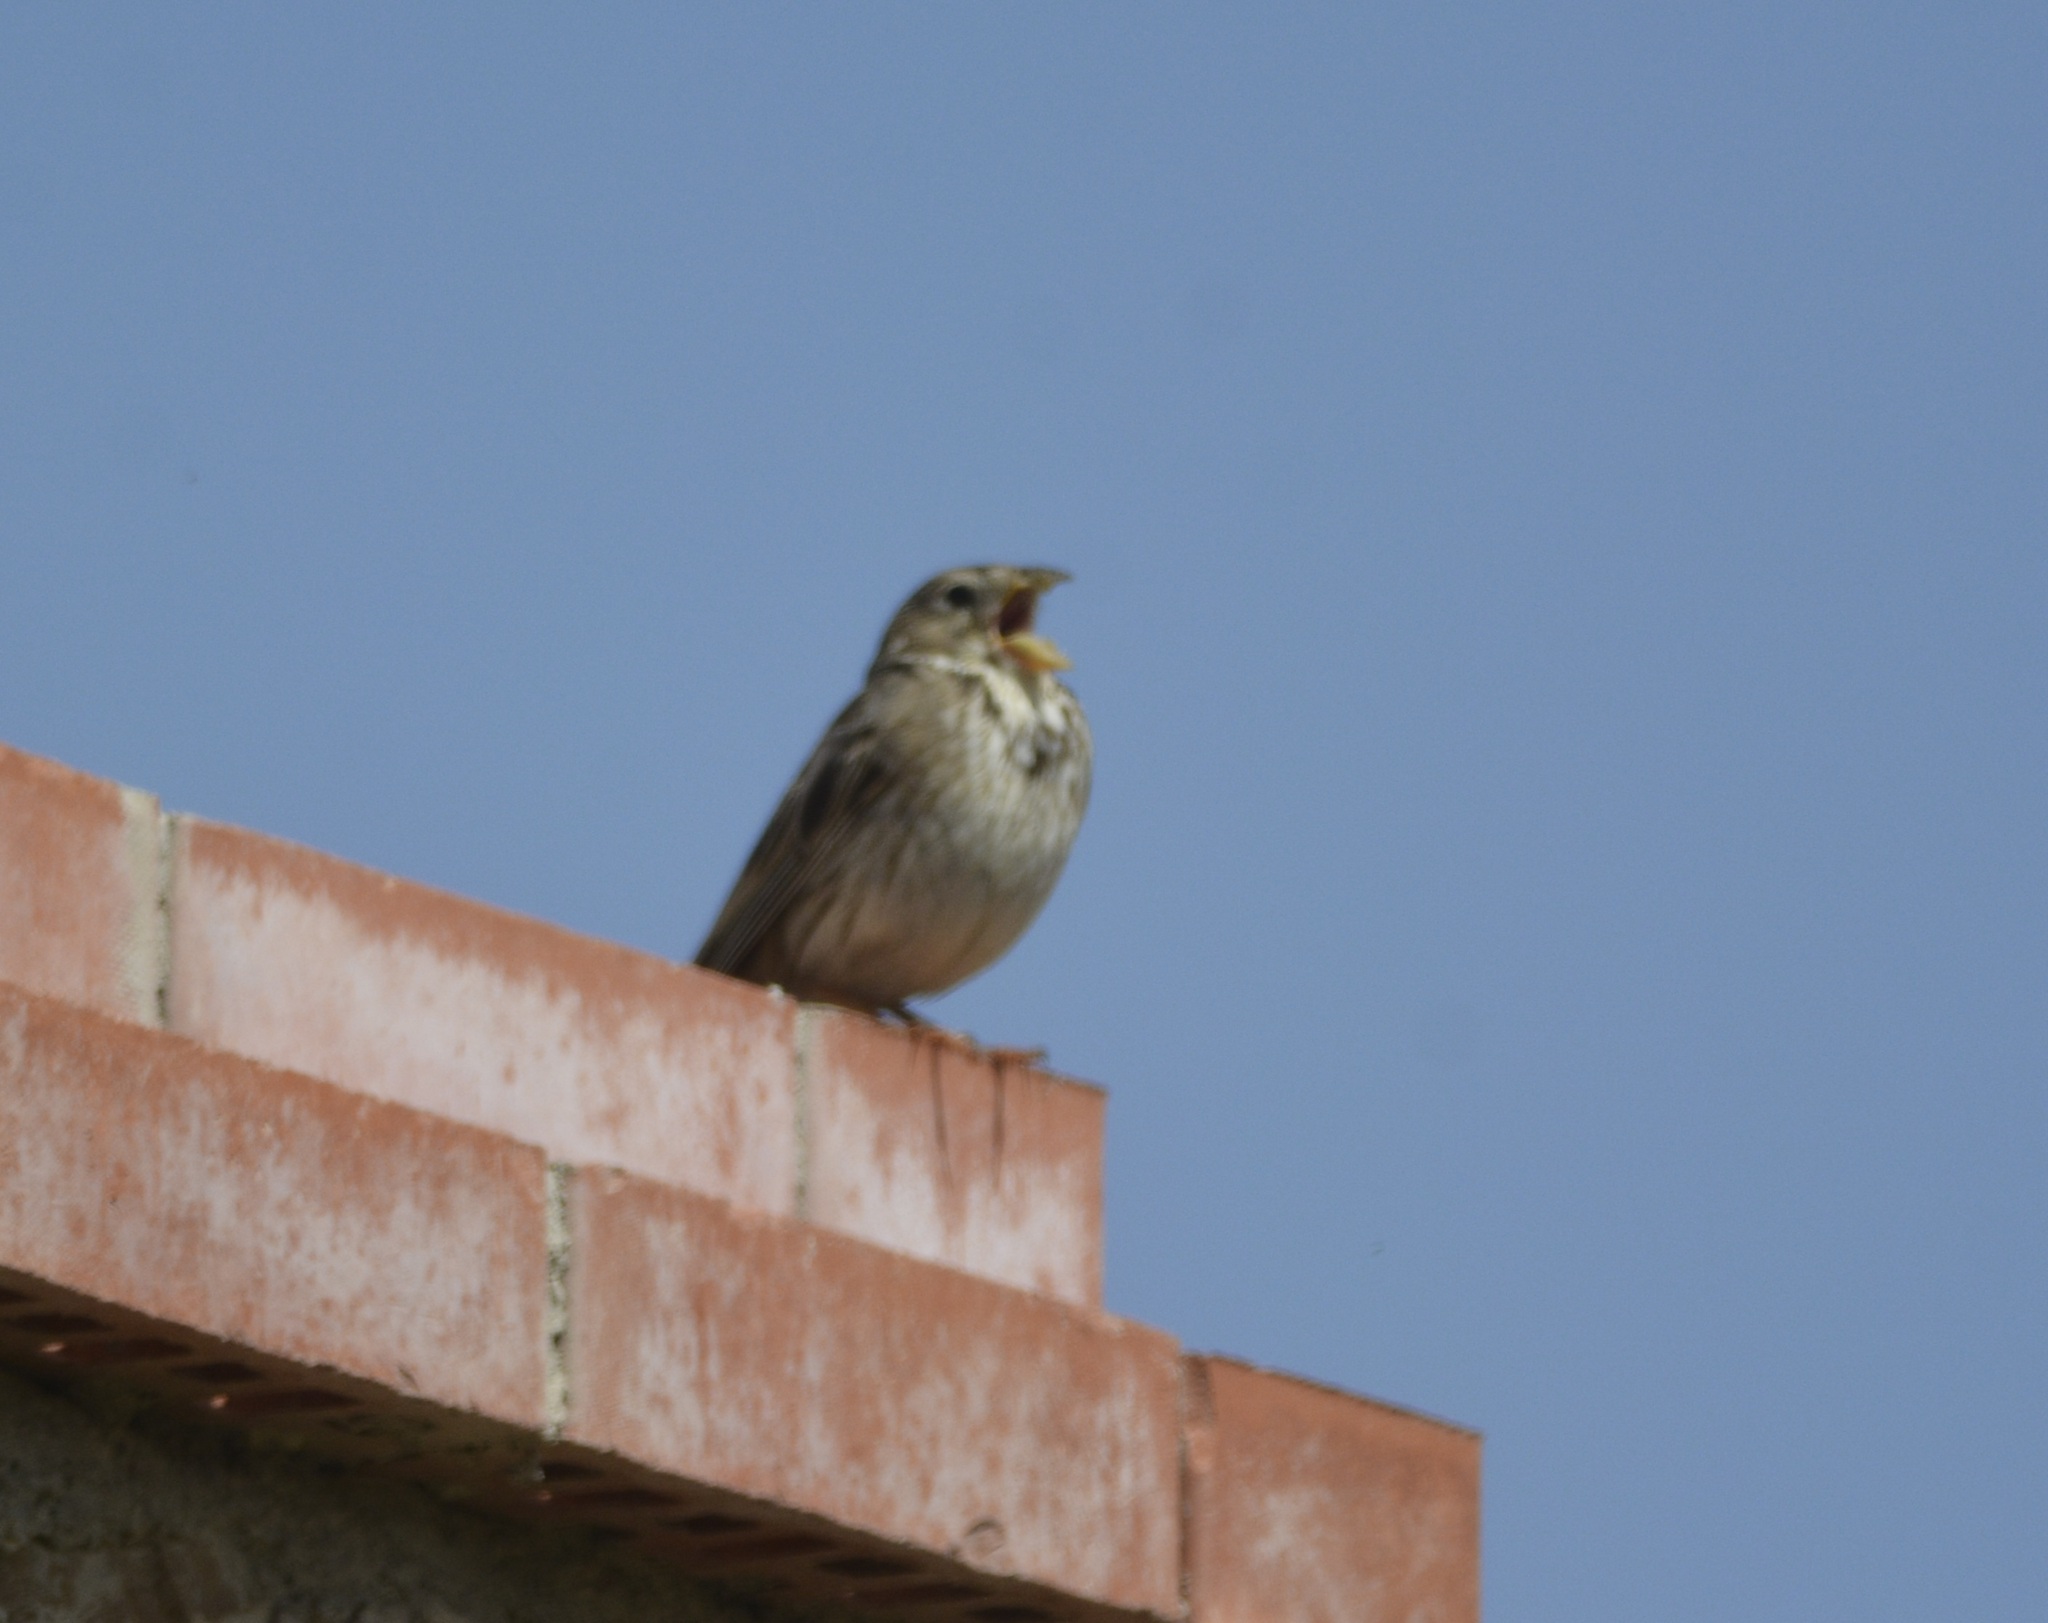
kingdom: Animalia
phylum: Chordata
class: Aves
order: Passeriformes
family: Emberizidae
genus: Emberiza
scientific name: Emberiza calandra
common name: Corn bunting
